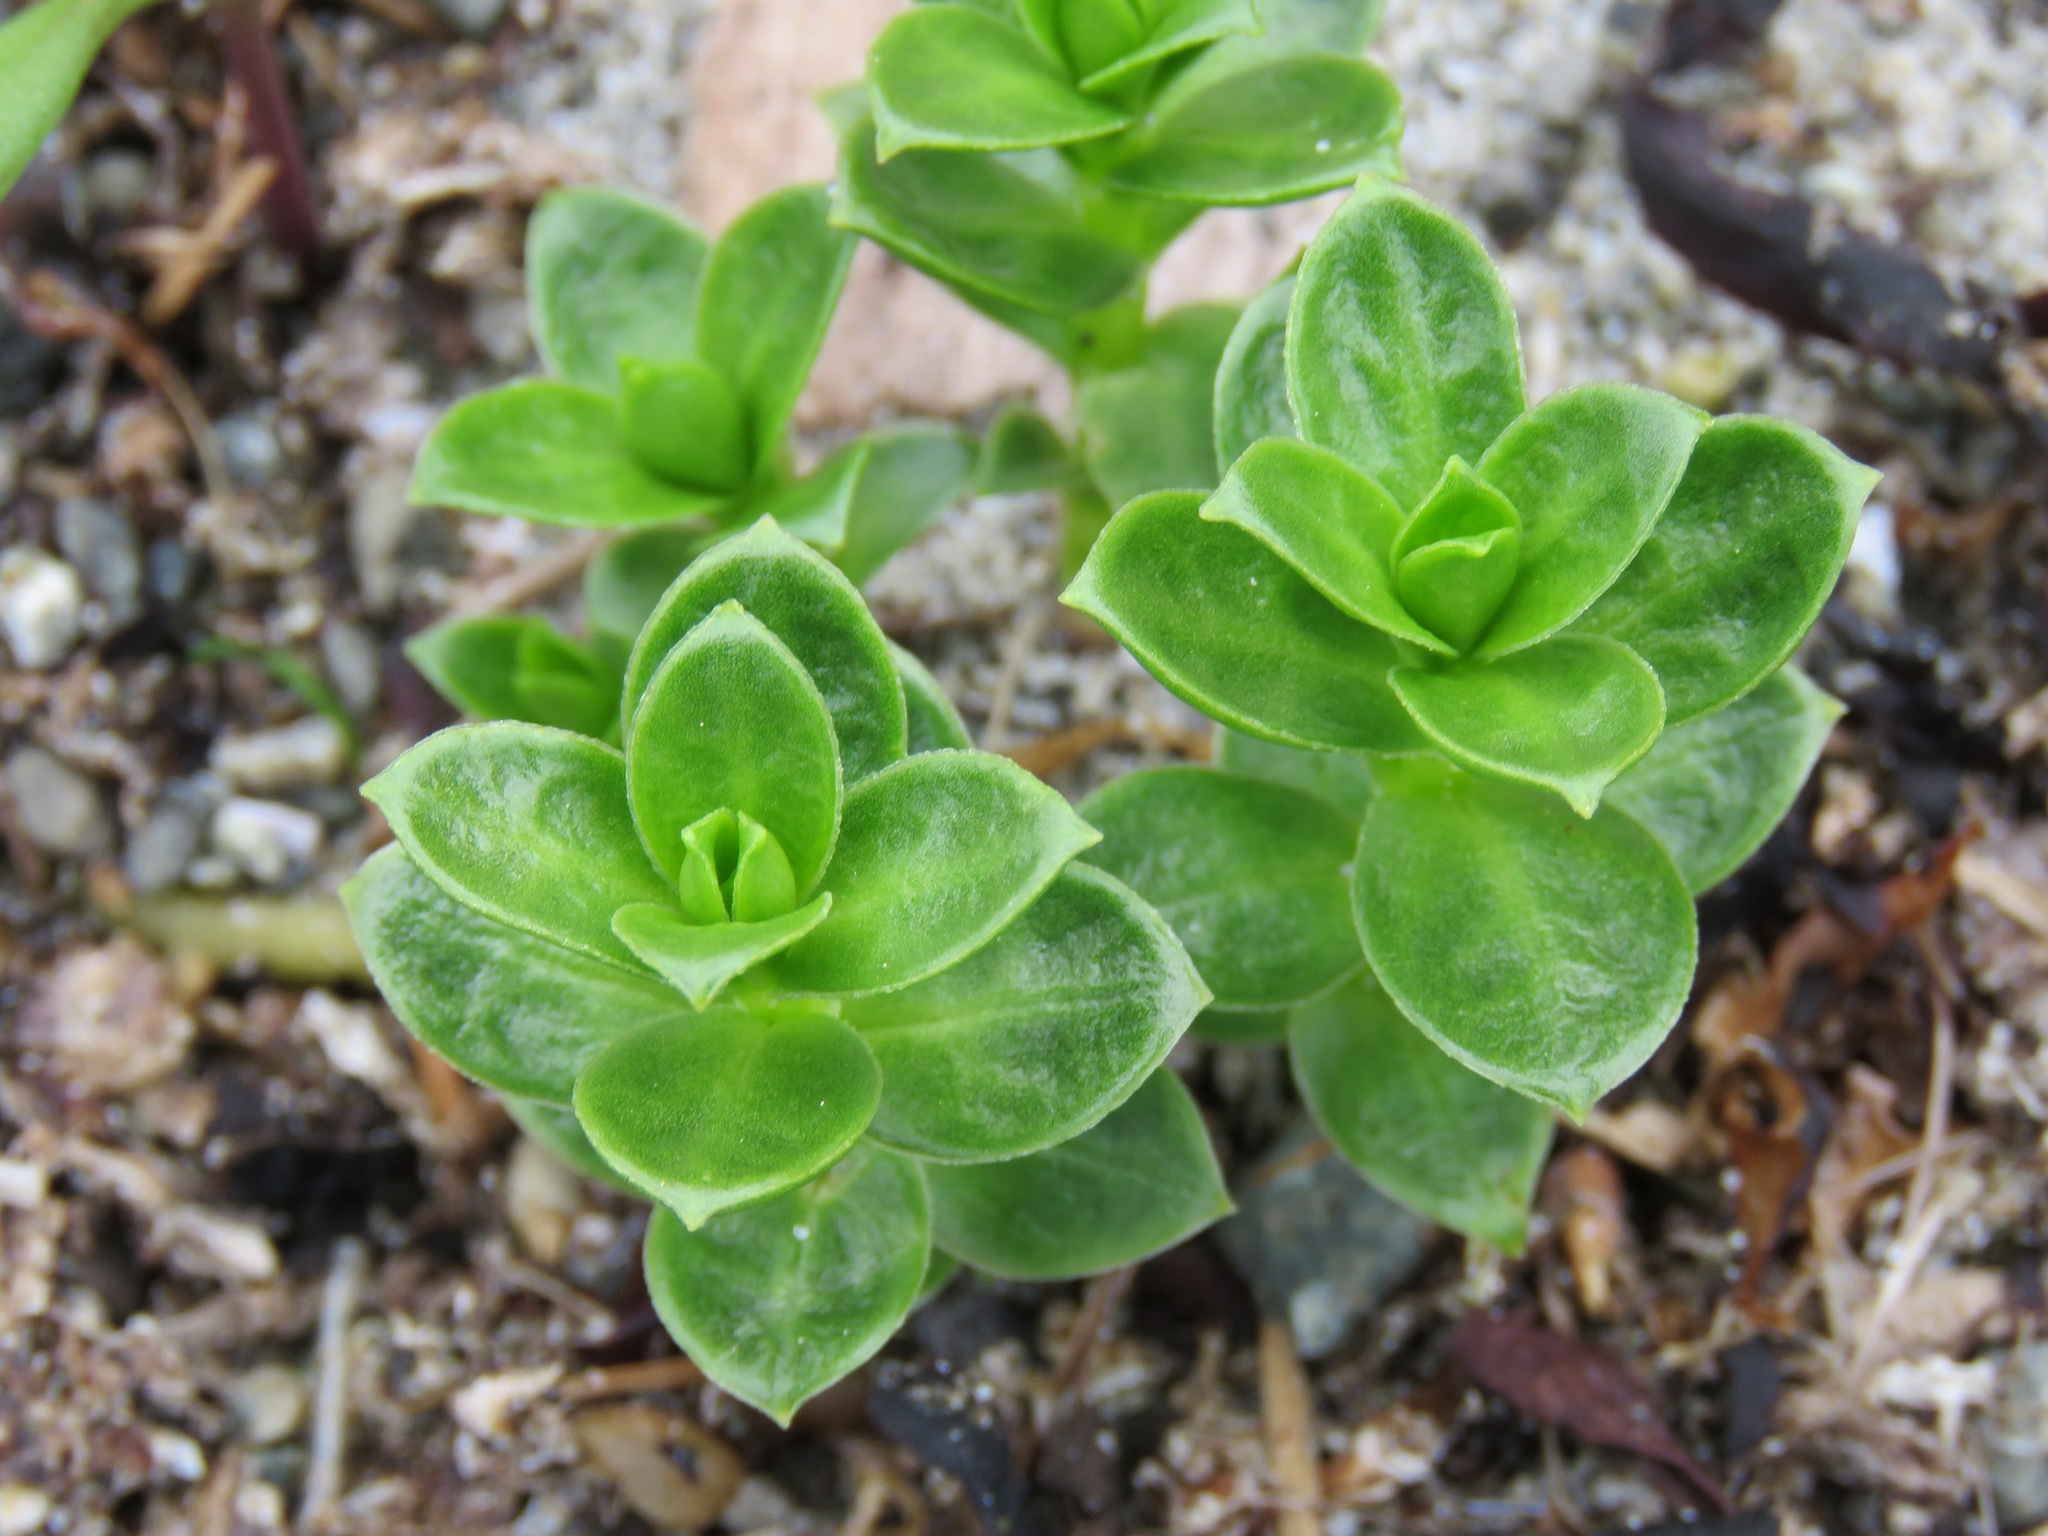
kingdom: Plantae
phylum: Tracheophyta
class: Magnoliopsida
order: Caryophyllales
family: Caryophyllaceae
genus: Honckenya
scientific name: Honckenya peploides
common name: Sea sandwort
